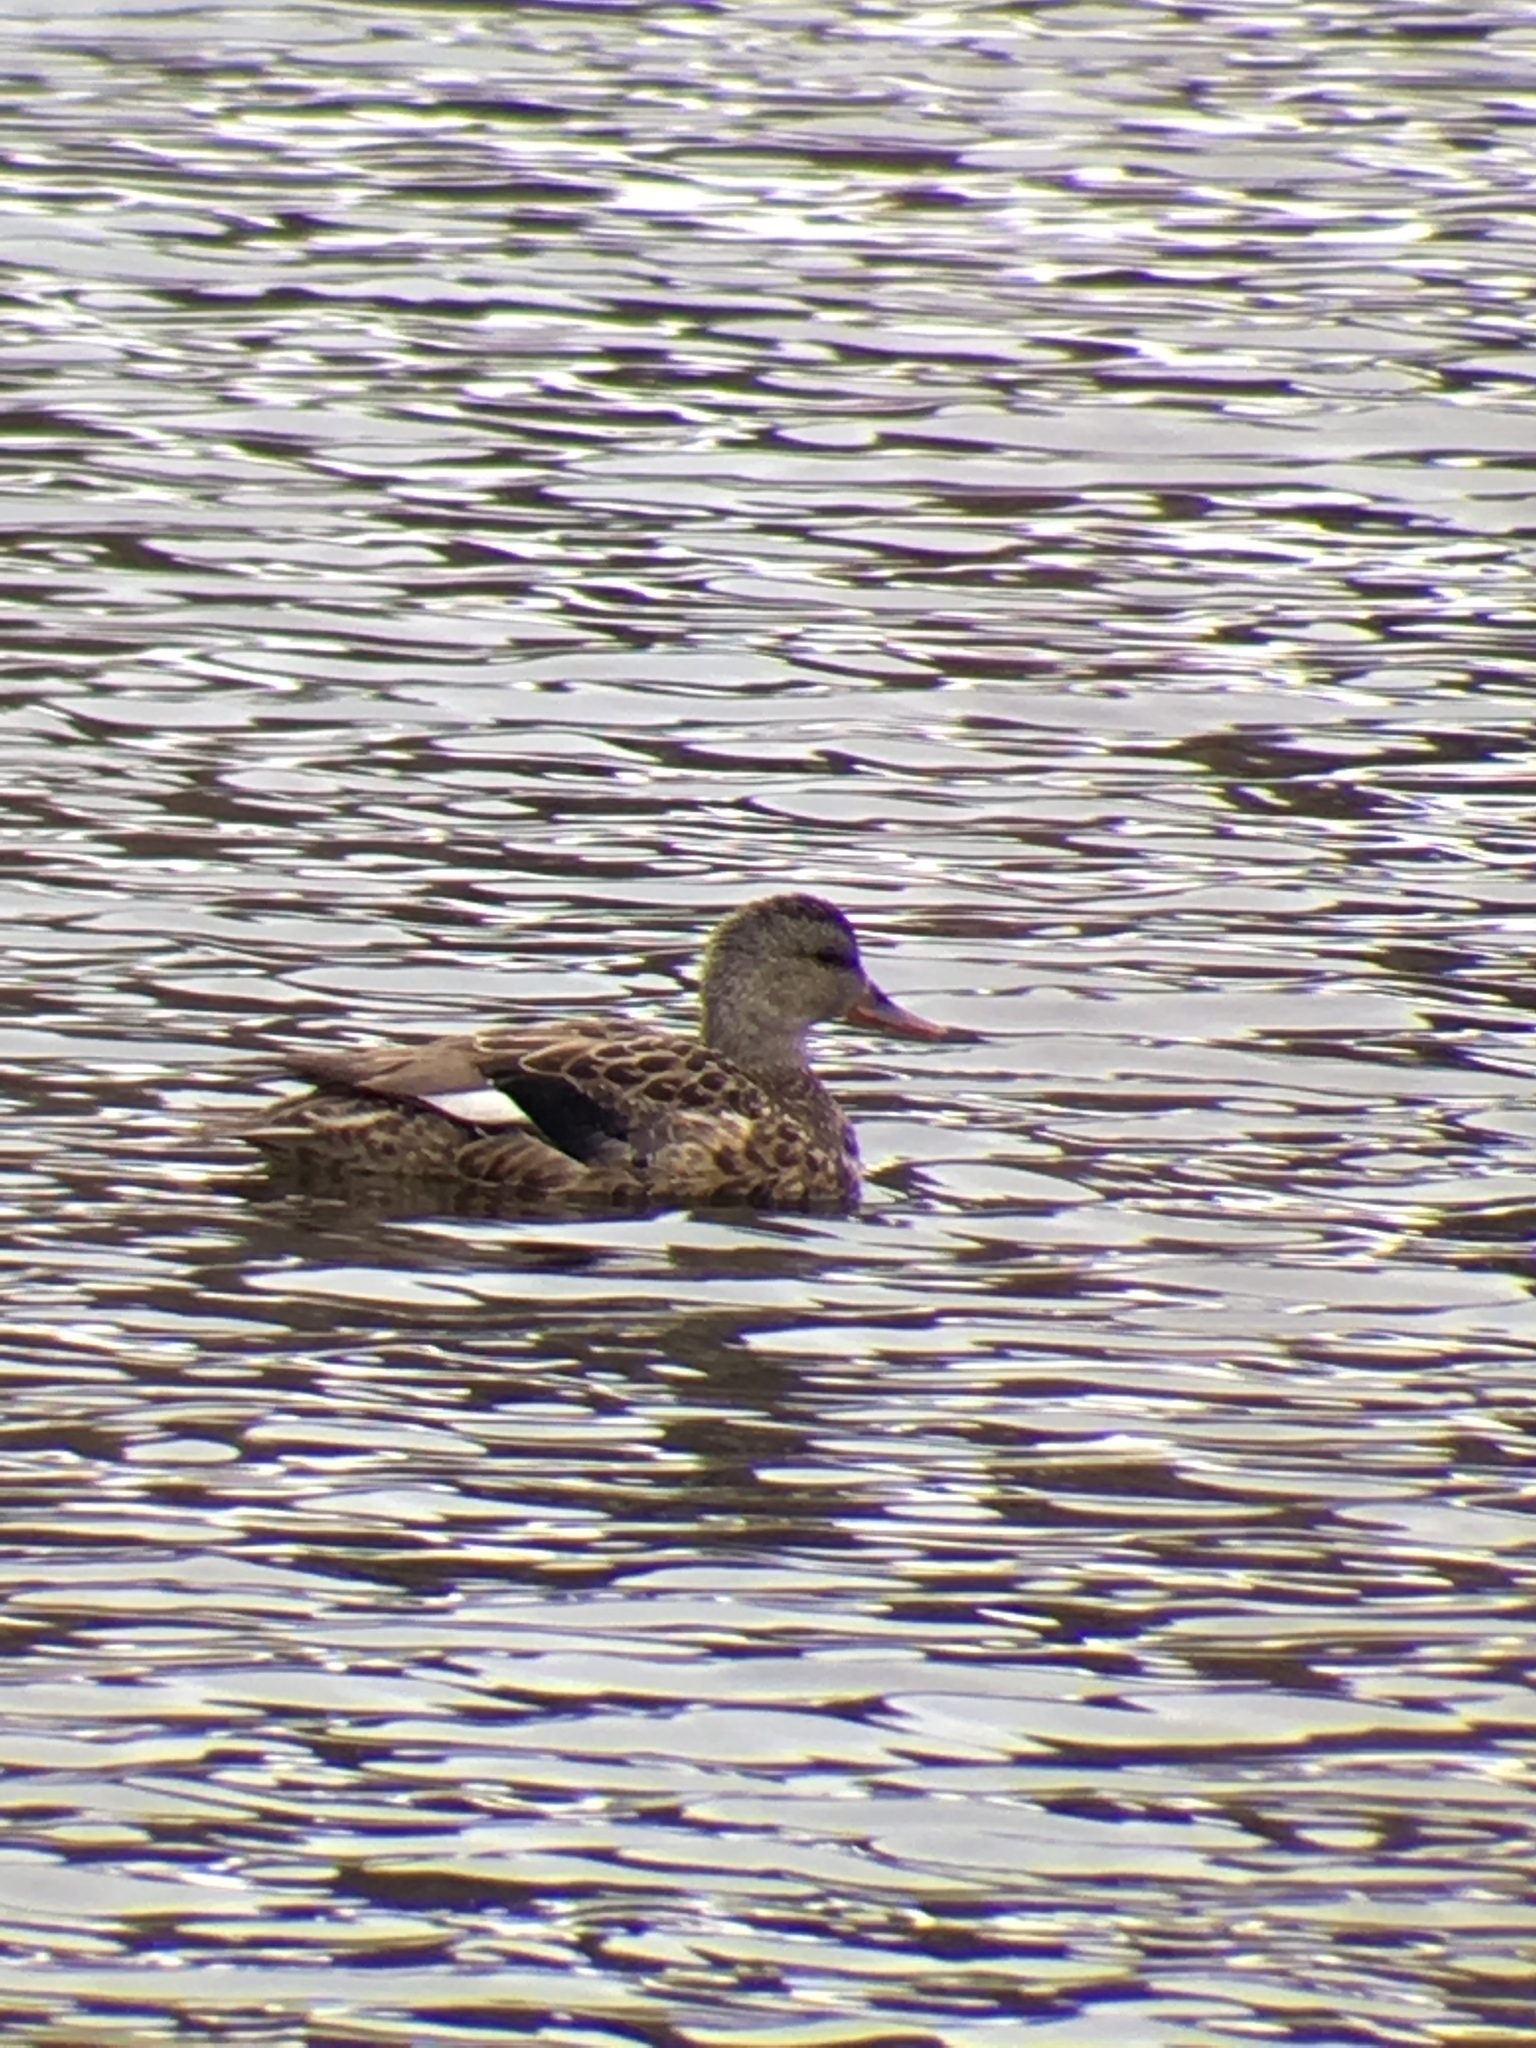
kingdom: Animalia
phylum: Chordata
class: Aves
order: Anseriformes
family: Anatidae
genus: Mareca
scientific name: Mareca strepera
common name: Gadwall
